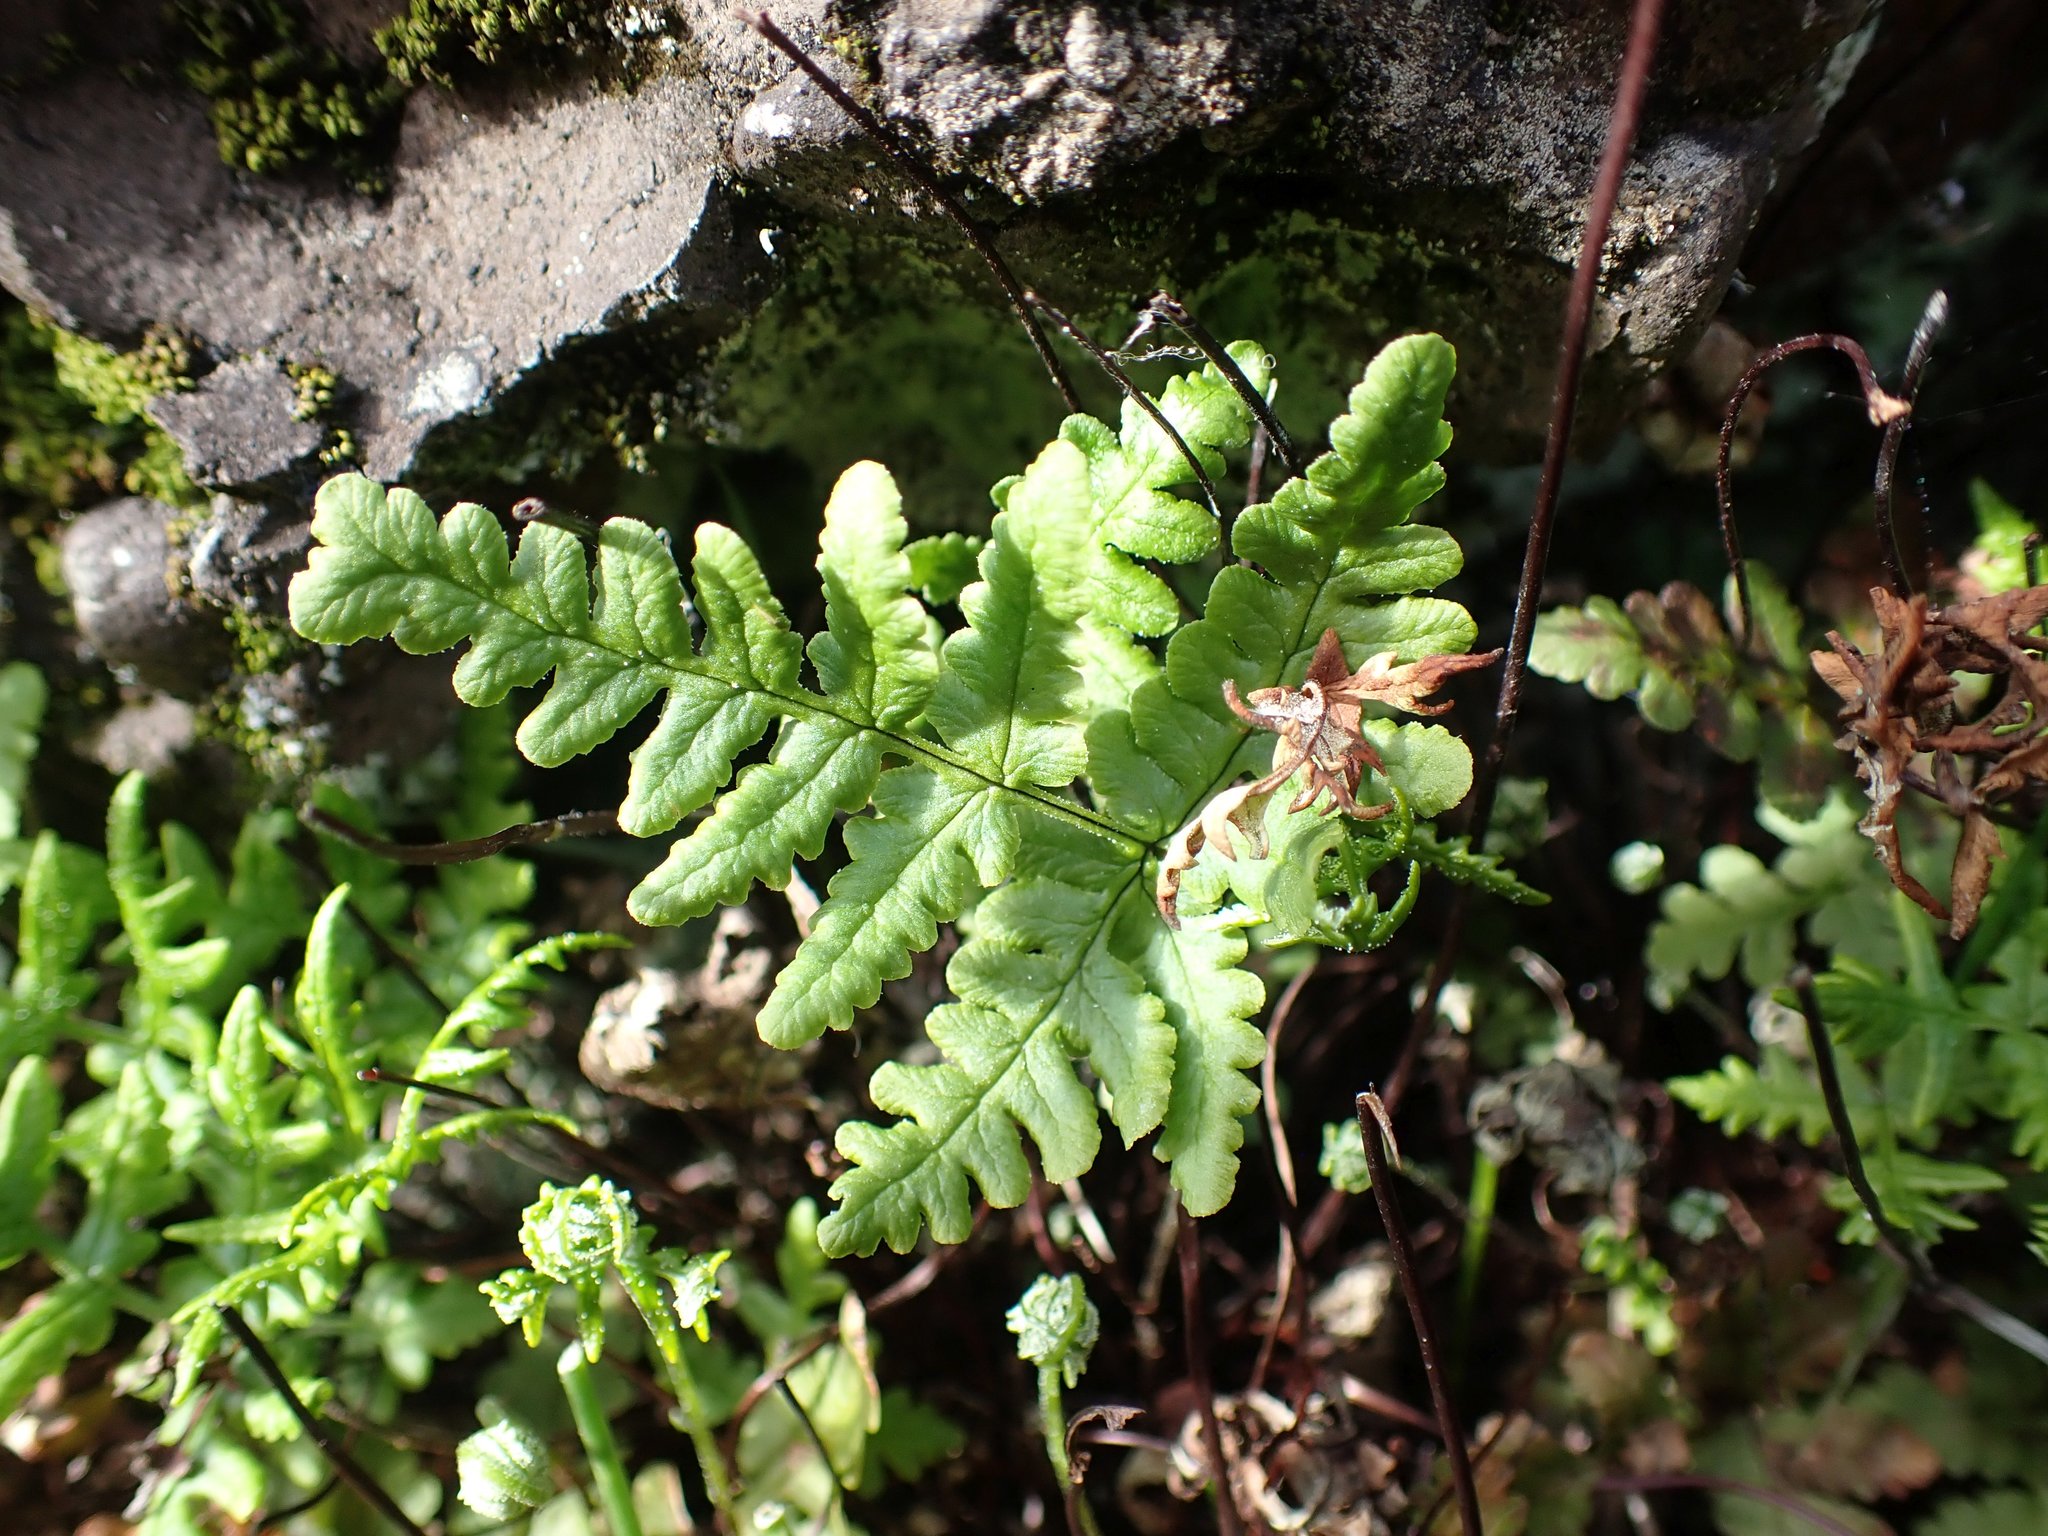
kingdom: Plantae
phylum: Tracheophyta
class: Polypodiopsida
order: Polypodiales
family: Pteridaceae
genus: Pentagramma
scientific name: Pentagramma triangularis
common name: Gold fern
